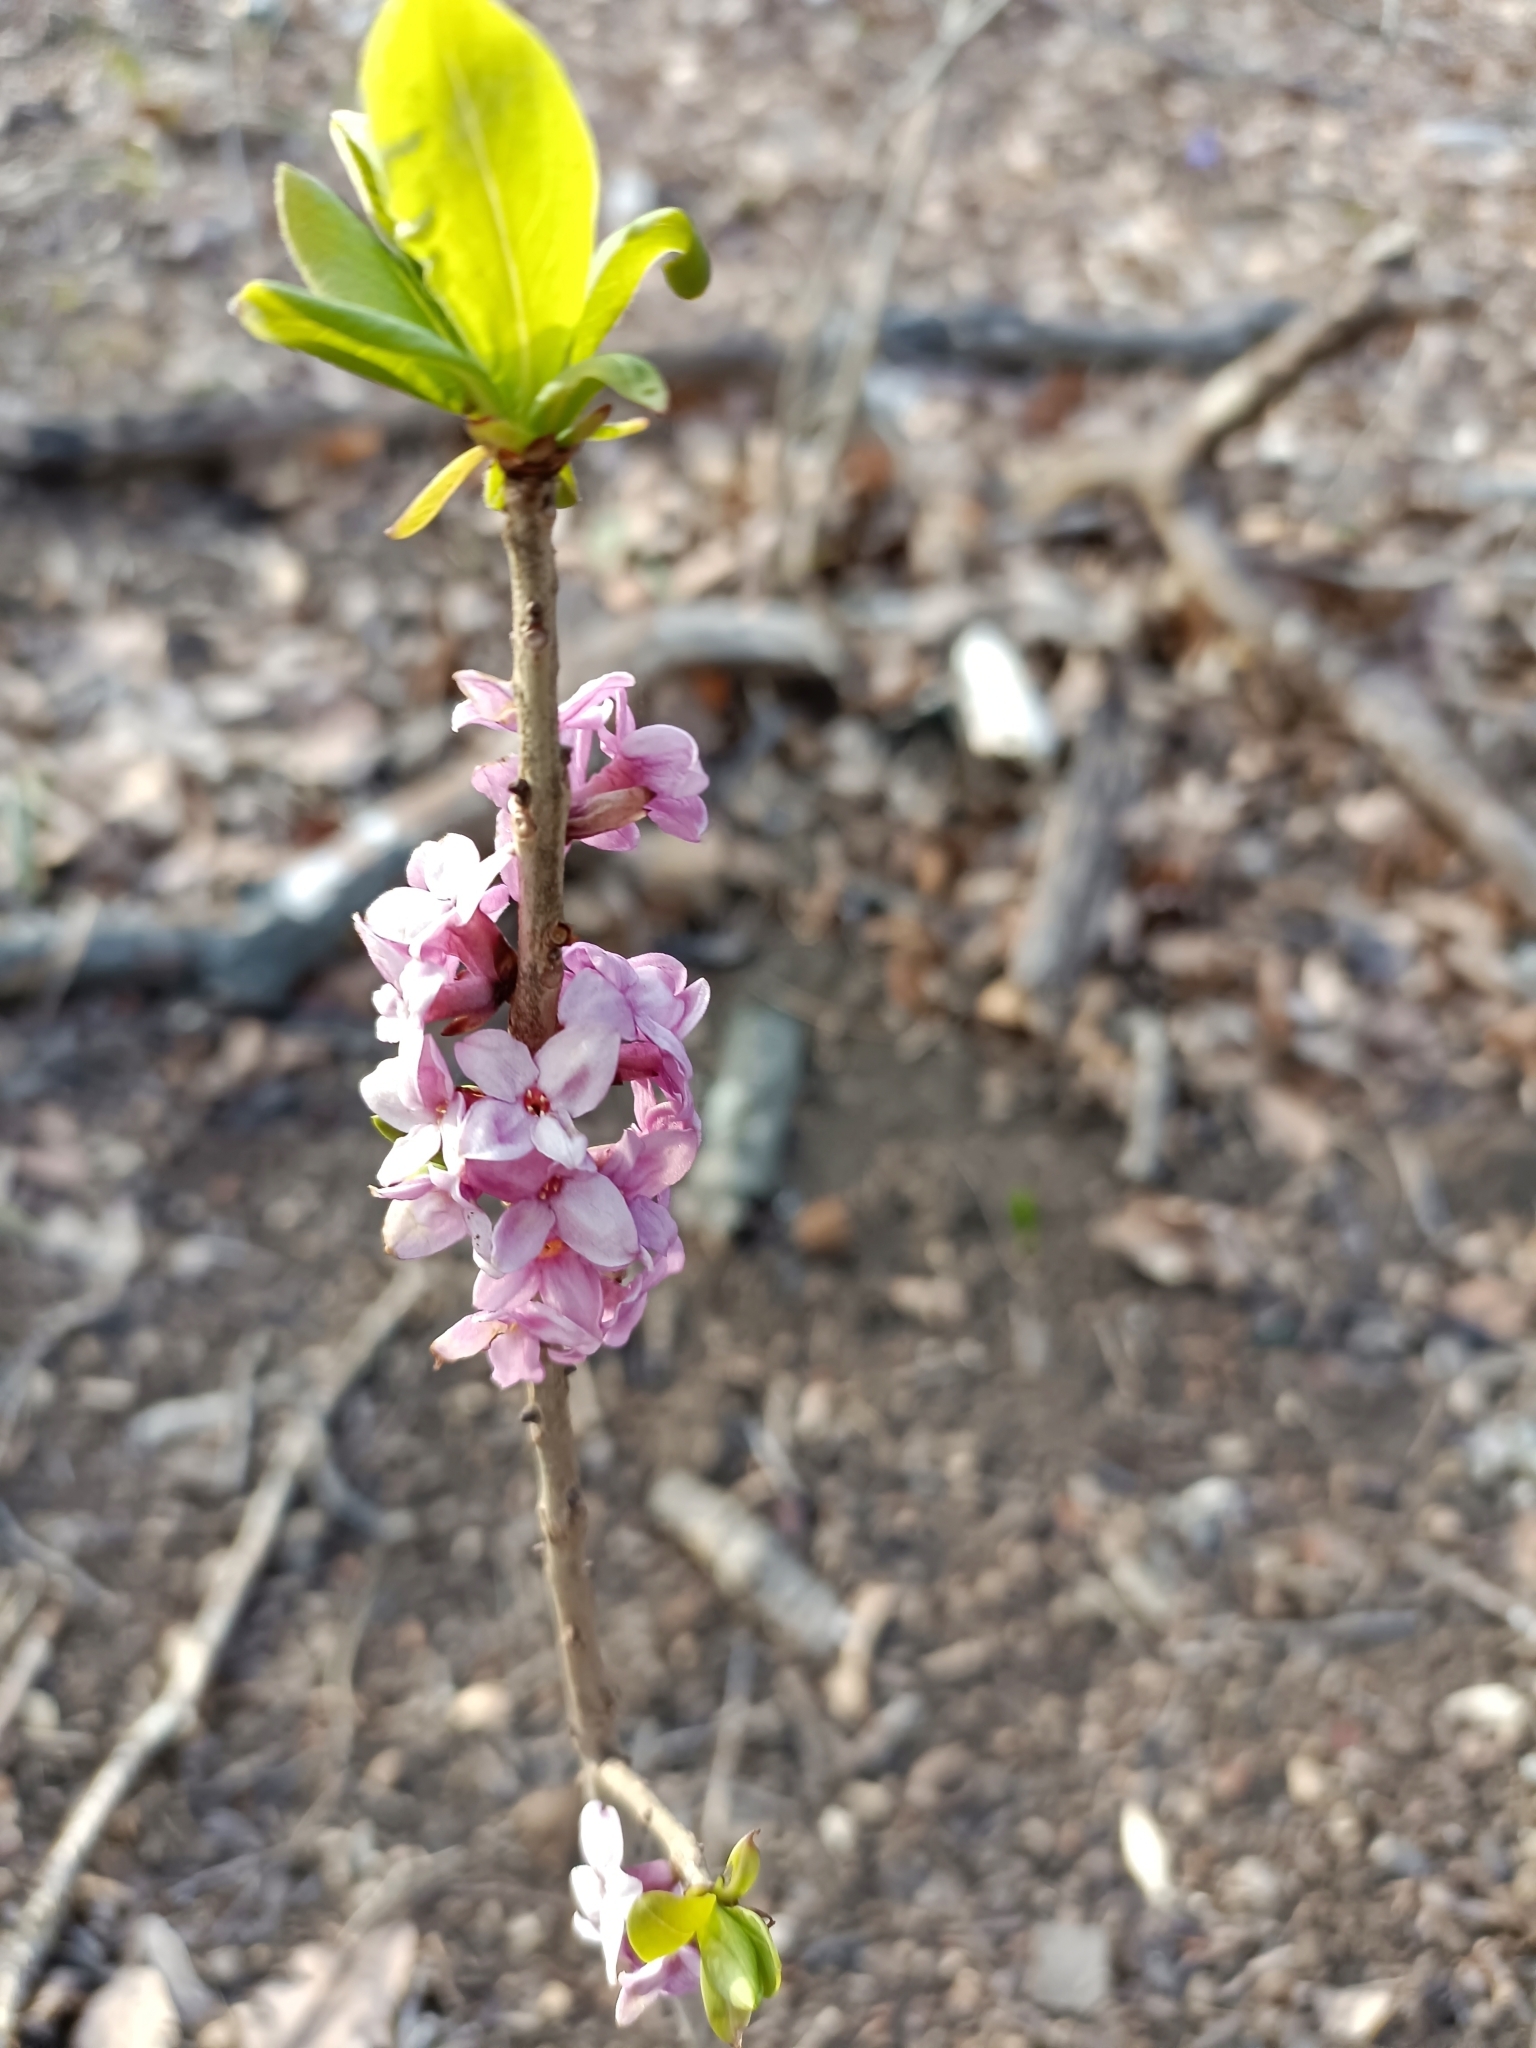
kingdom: Plantae
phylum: Tracheophyta
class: Magnoliopsida
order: Malvales
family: Thymelaeaceae
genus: Daphne
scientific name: Daphne mezereum
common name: Mezereon
